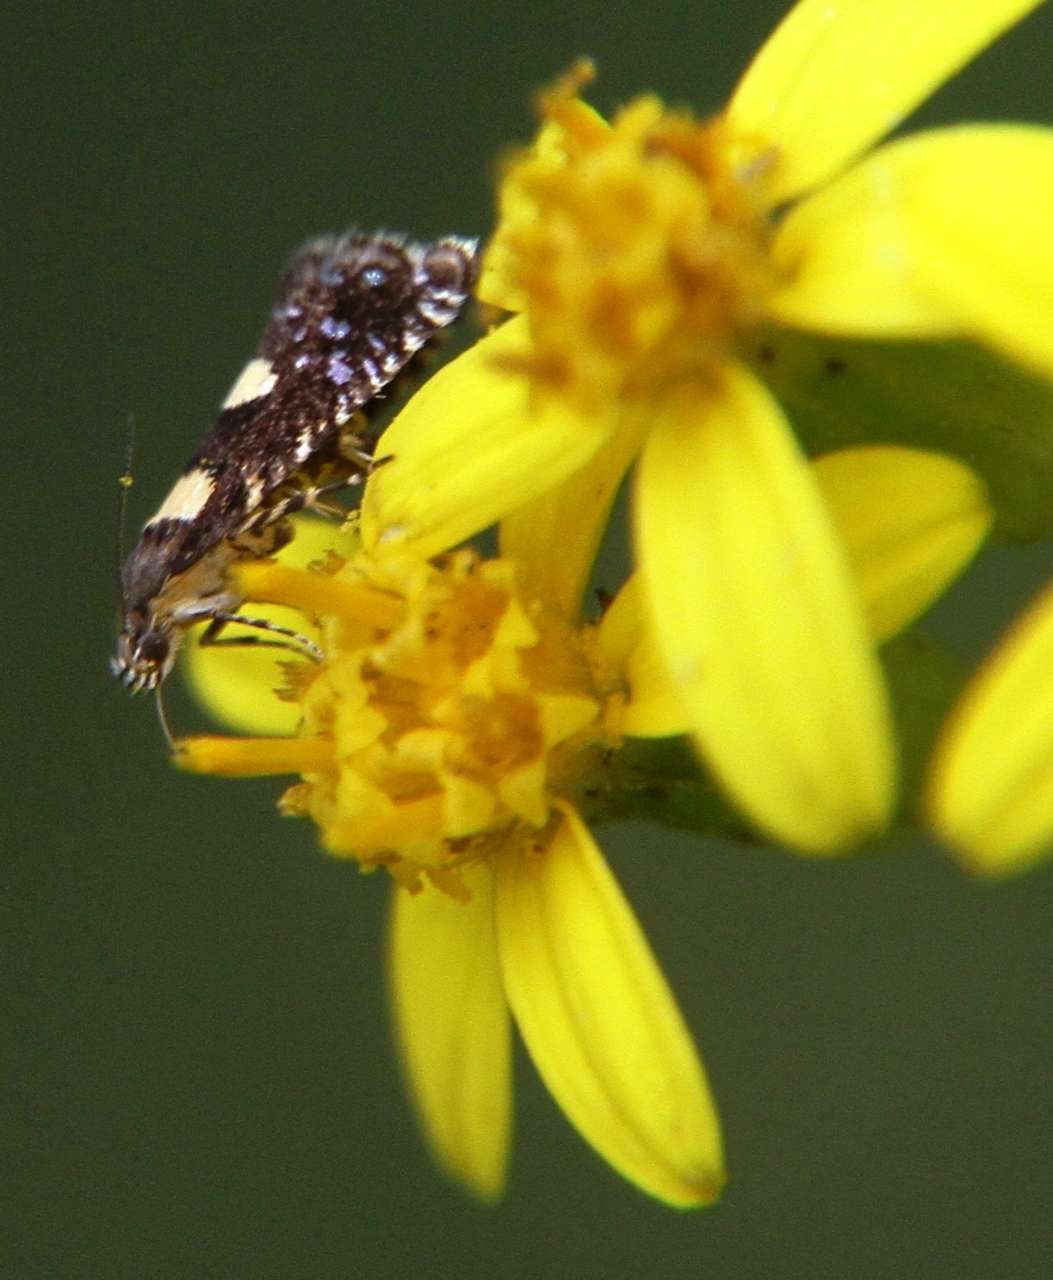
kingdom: Animalia
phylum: Arthropoda
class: Insecta
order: Lepidoptera
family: Glyphipterigidae
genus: Glyphipterix
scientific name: Glyphipterix chrysoplanetis
